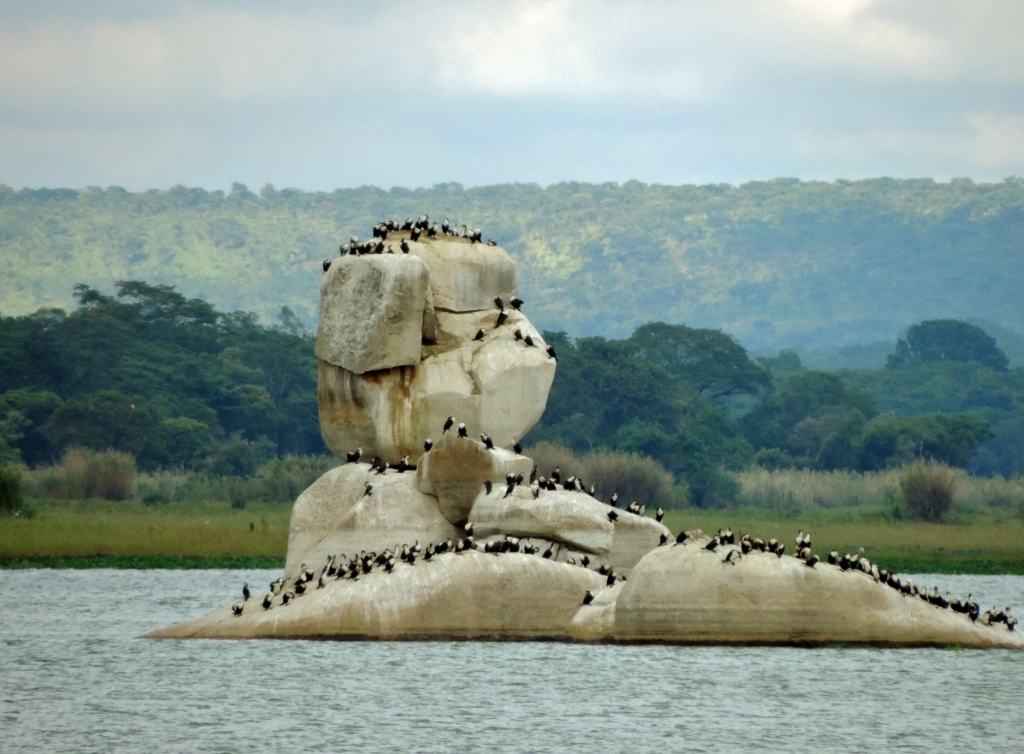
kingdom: Animalia
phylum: Chordata
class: Aves
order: Suliformes
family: Phalacrocoracidae
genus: Phalacrocorax
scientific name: Phalacrocorax carbo
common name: Great cormorant
